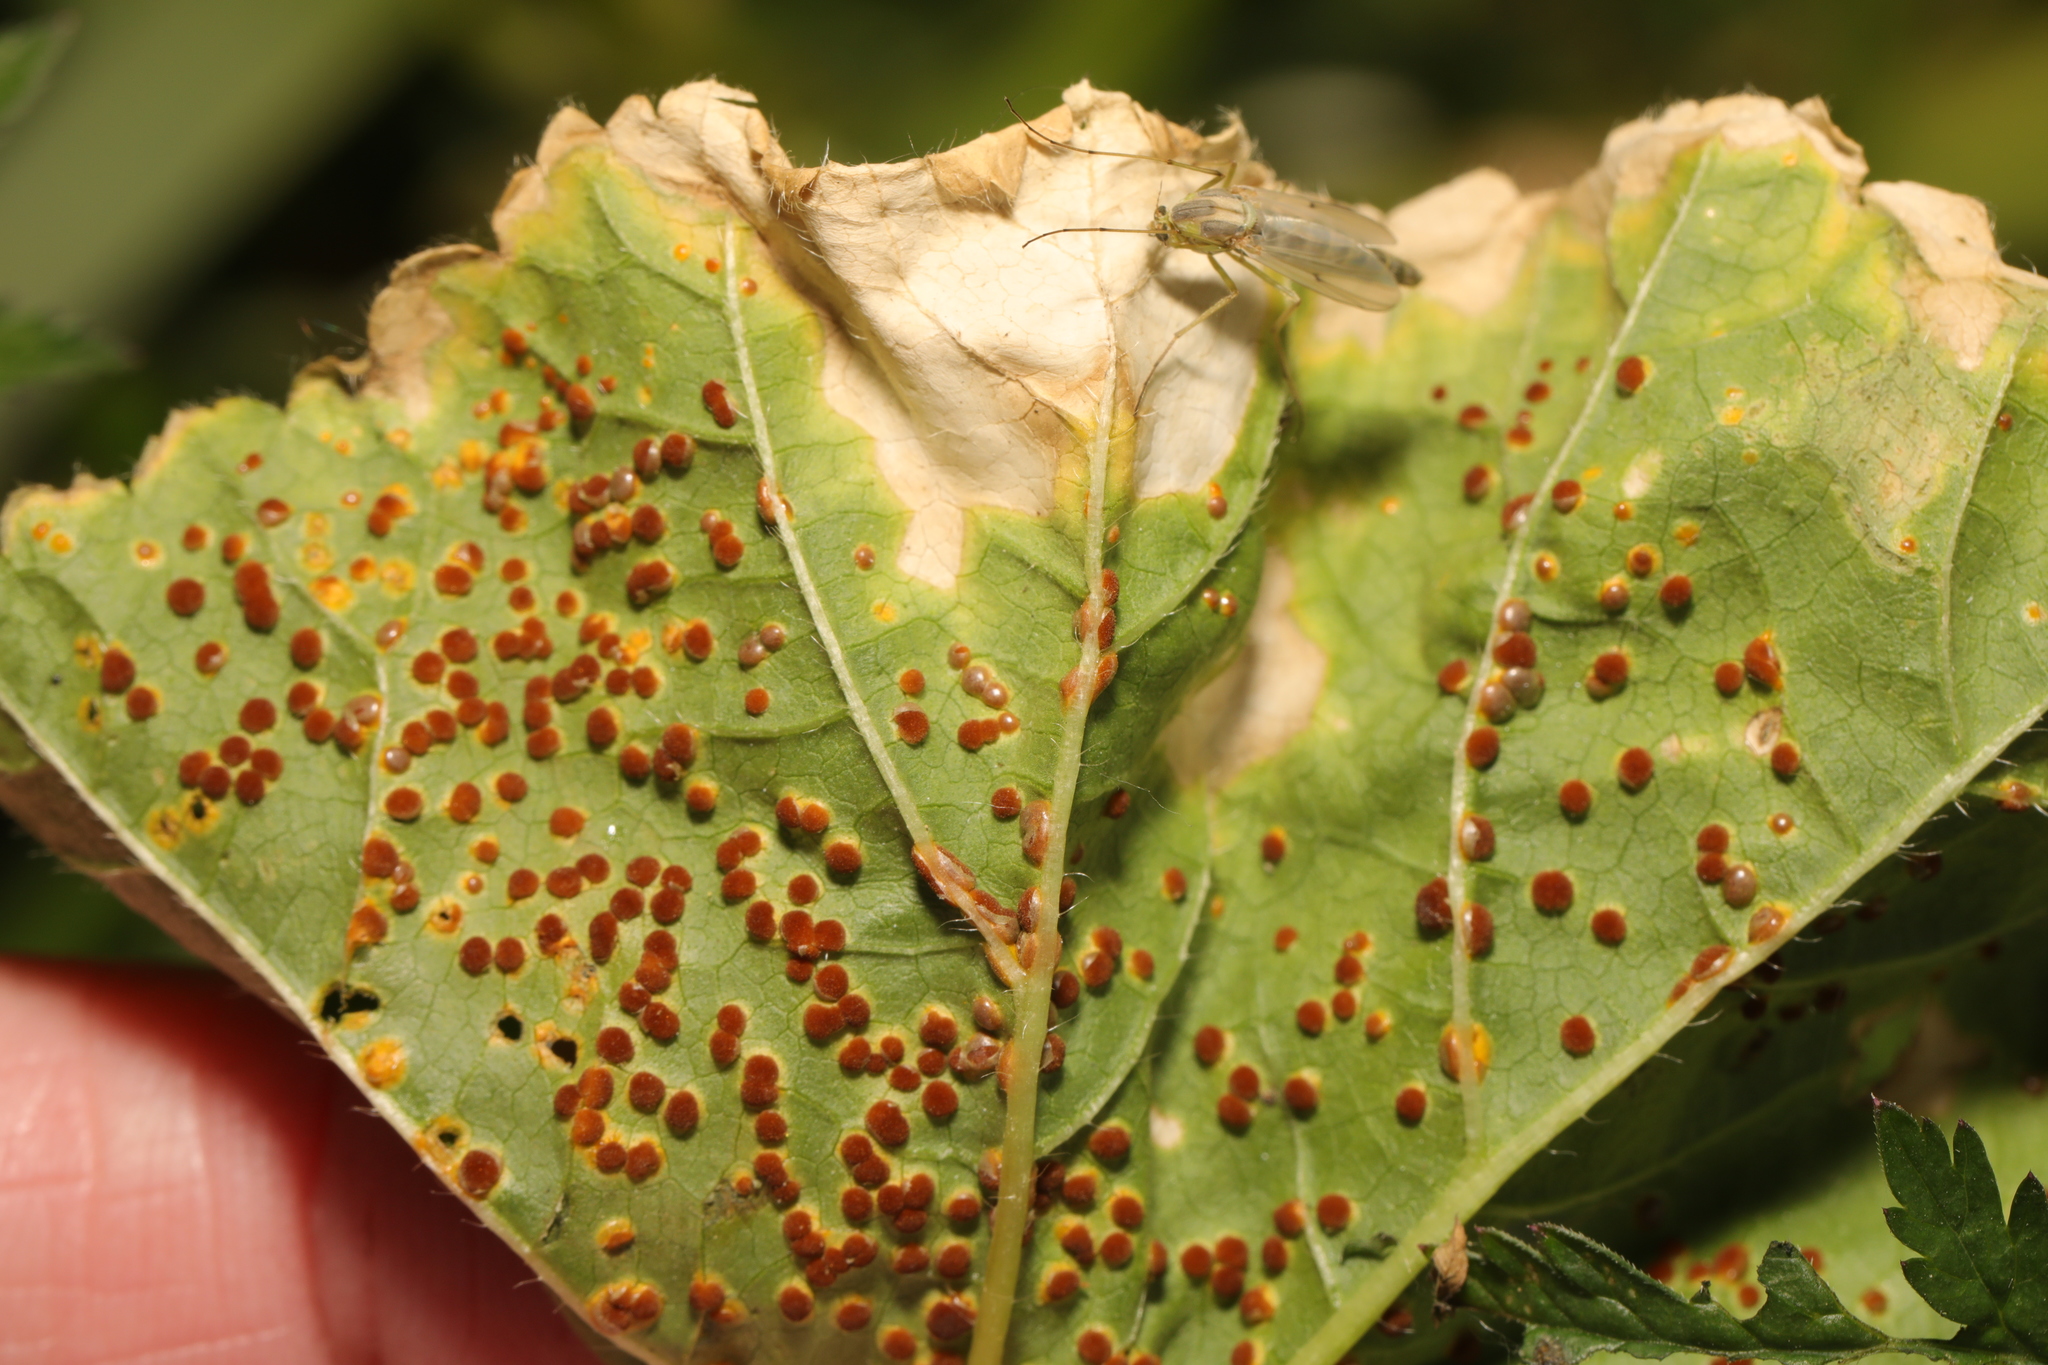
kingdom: Fungi
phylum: Basidiomycota
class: Pucciniomycetes
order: Pucciniales
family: Pucciniaceae
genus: Puccinia
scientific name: Puccinia malvacearum
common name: Hollyhock rust
